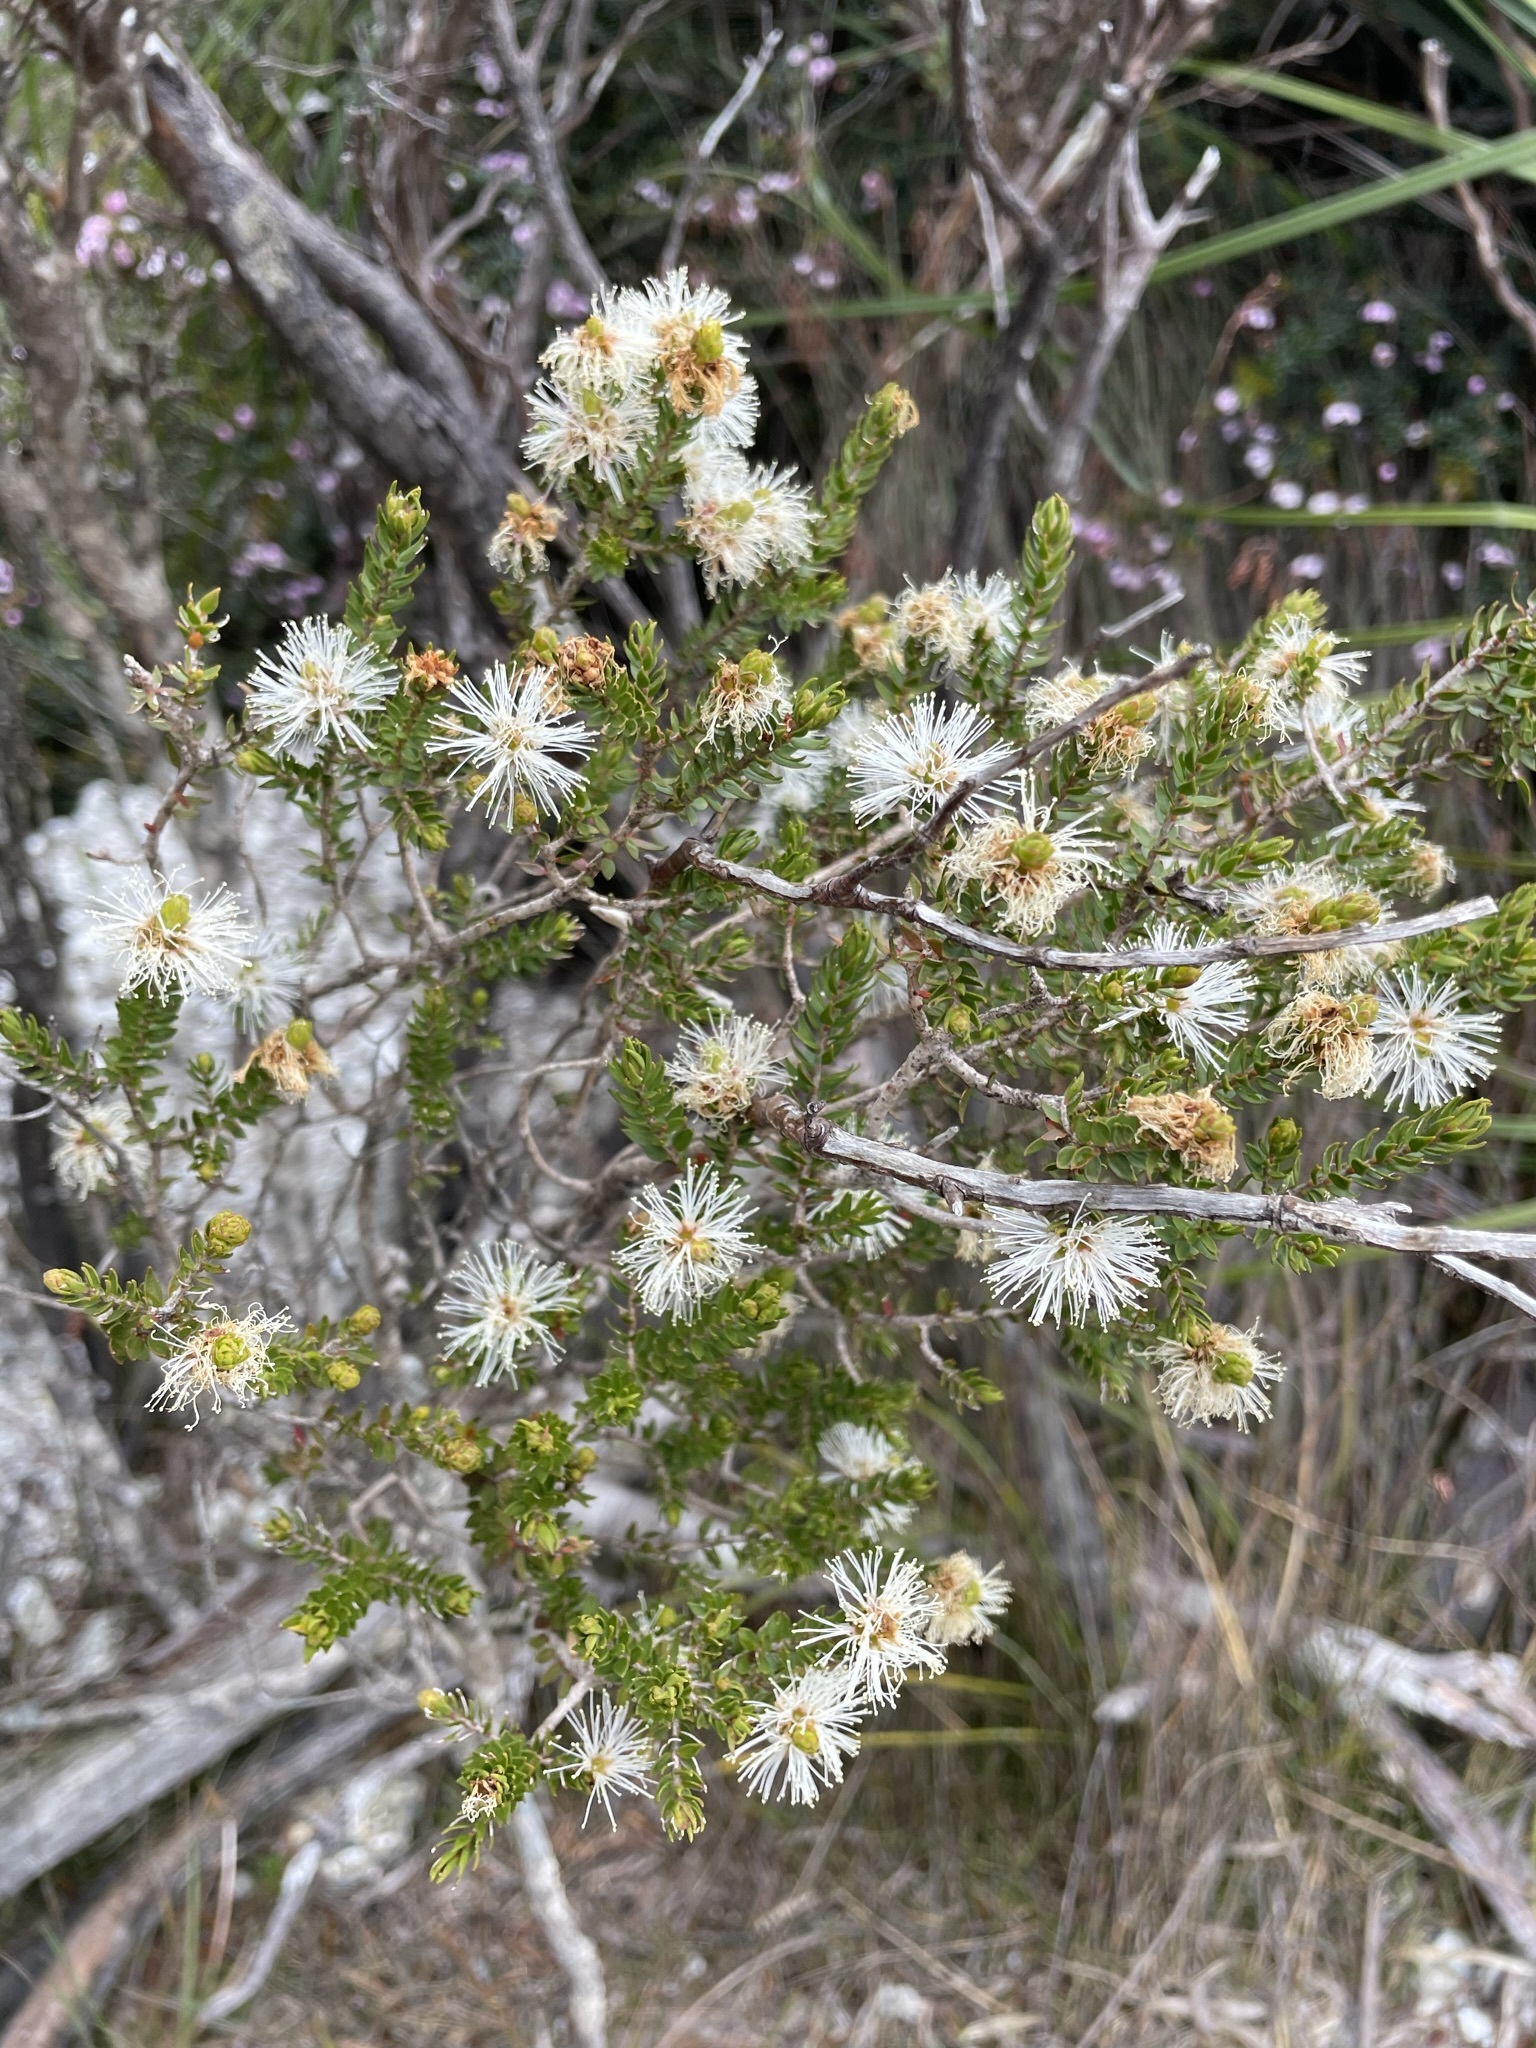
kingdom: Plantae
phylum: Tracheophyta
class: Magnoliopsida
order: Myrtales
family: Myrtaceae
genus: Melaleuca
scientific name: Melaleuca squamea
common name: Swamp melaleuca
